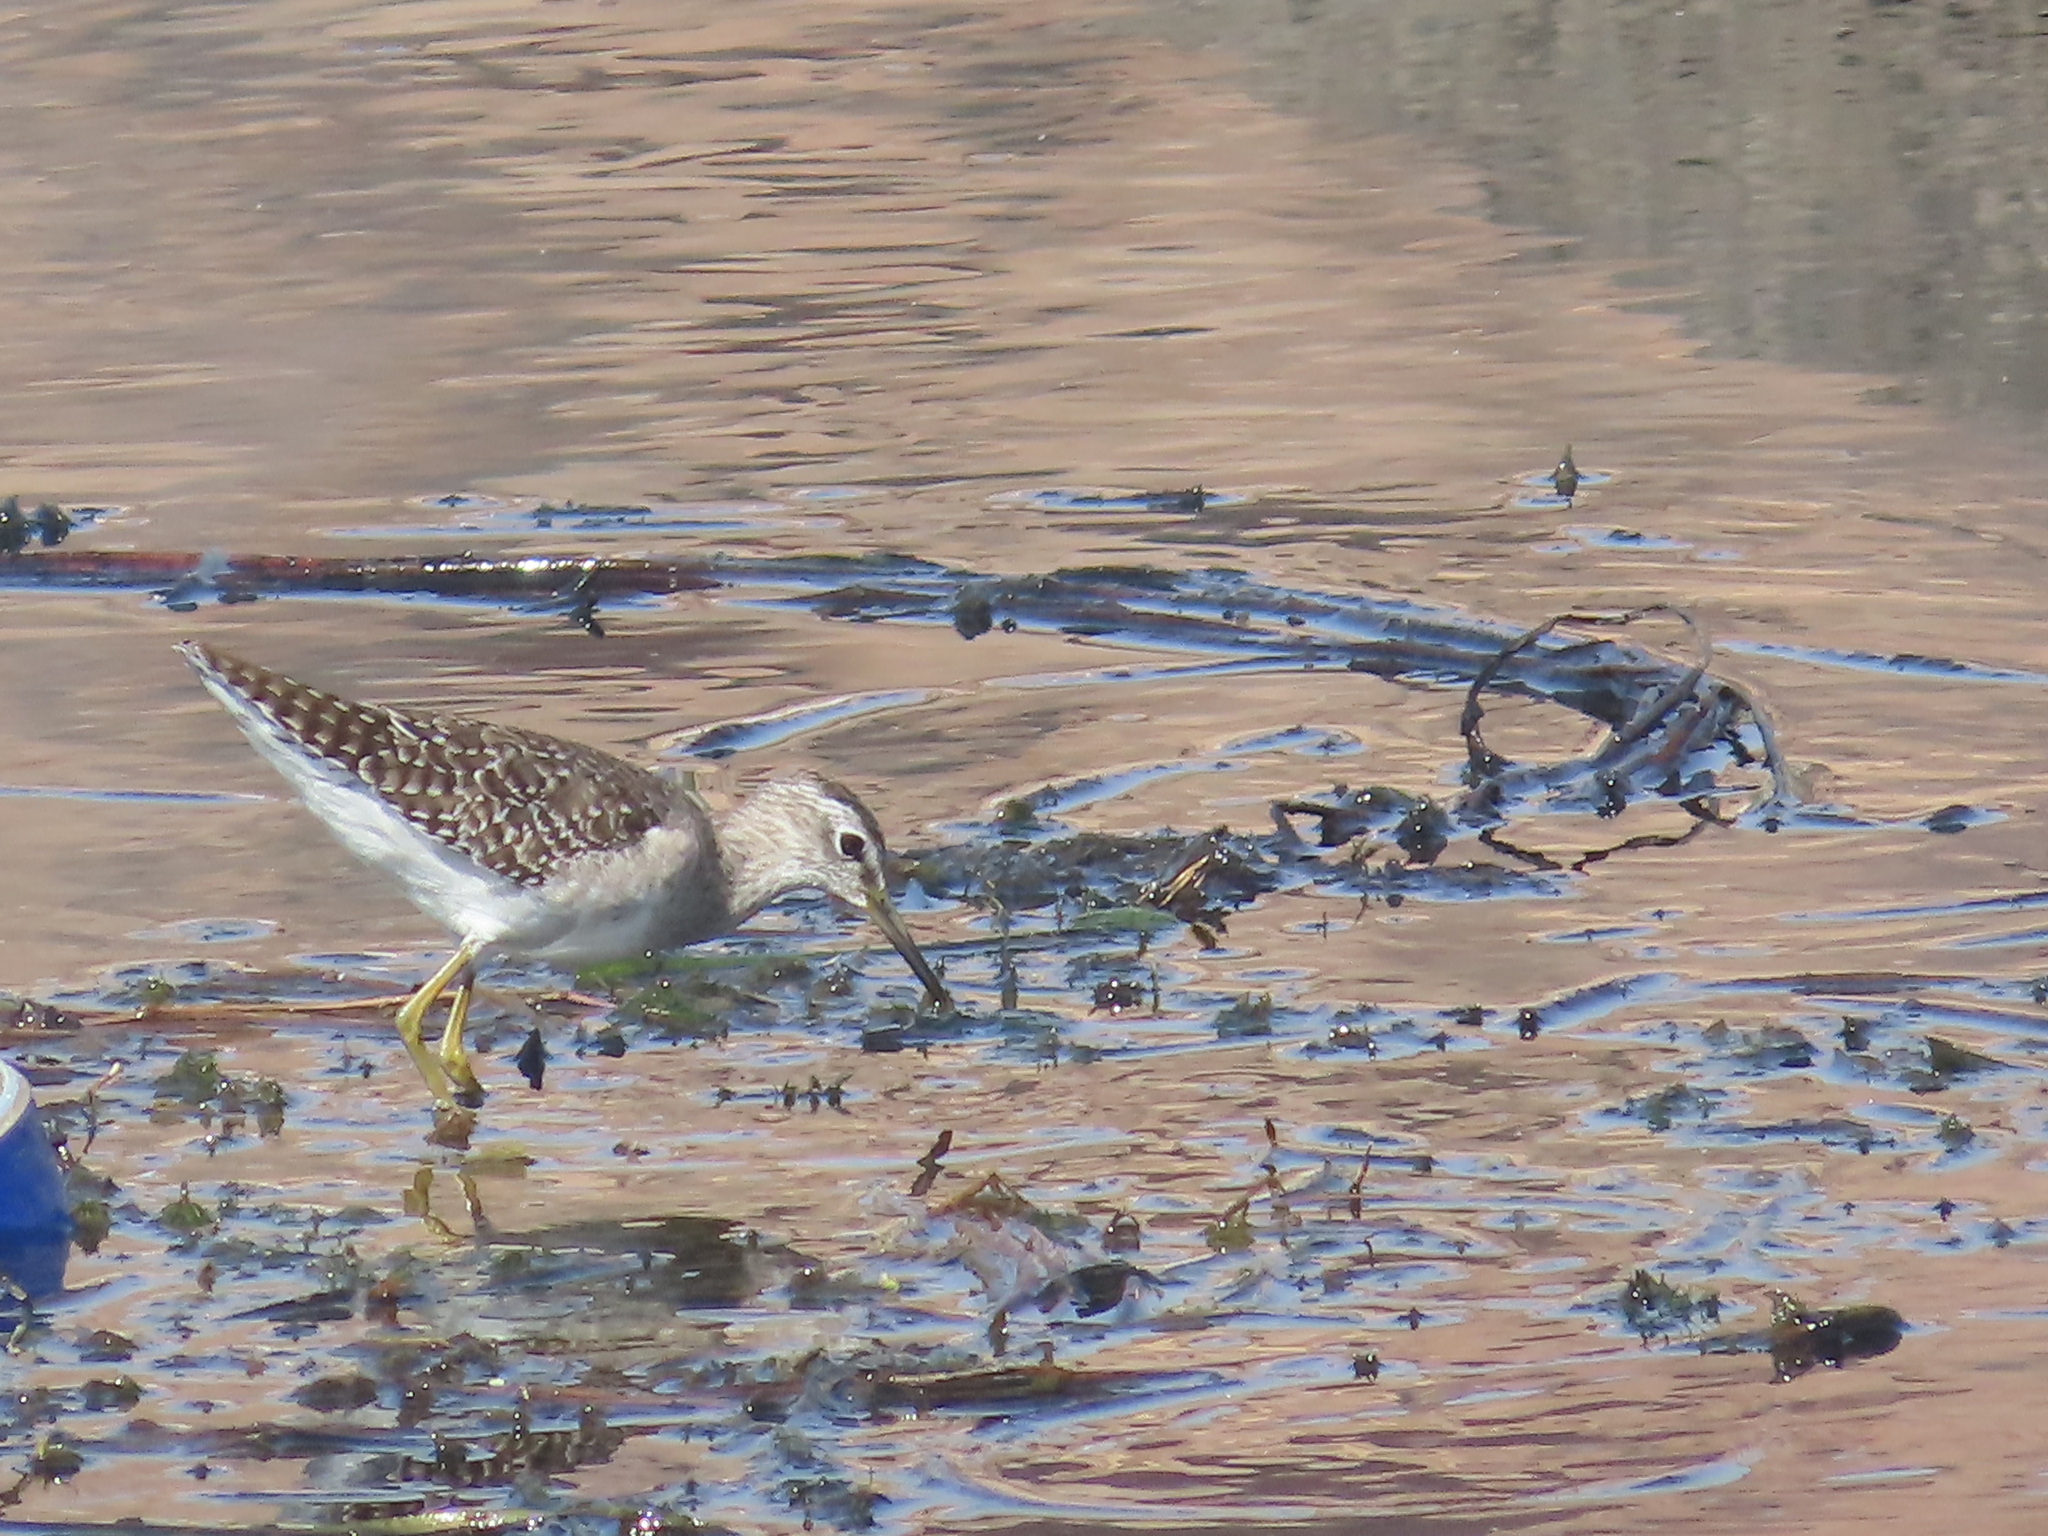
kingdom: Animalia
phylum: Chordata
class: Aves
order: Charadriiformes
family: Scolopacidae
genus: Tringa
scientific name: Tringa glareola
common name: Wood sandpiper
